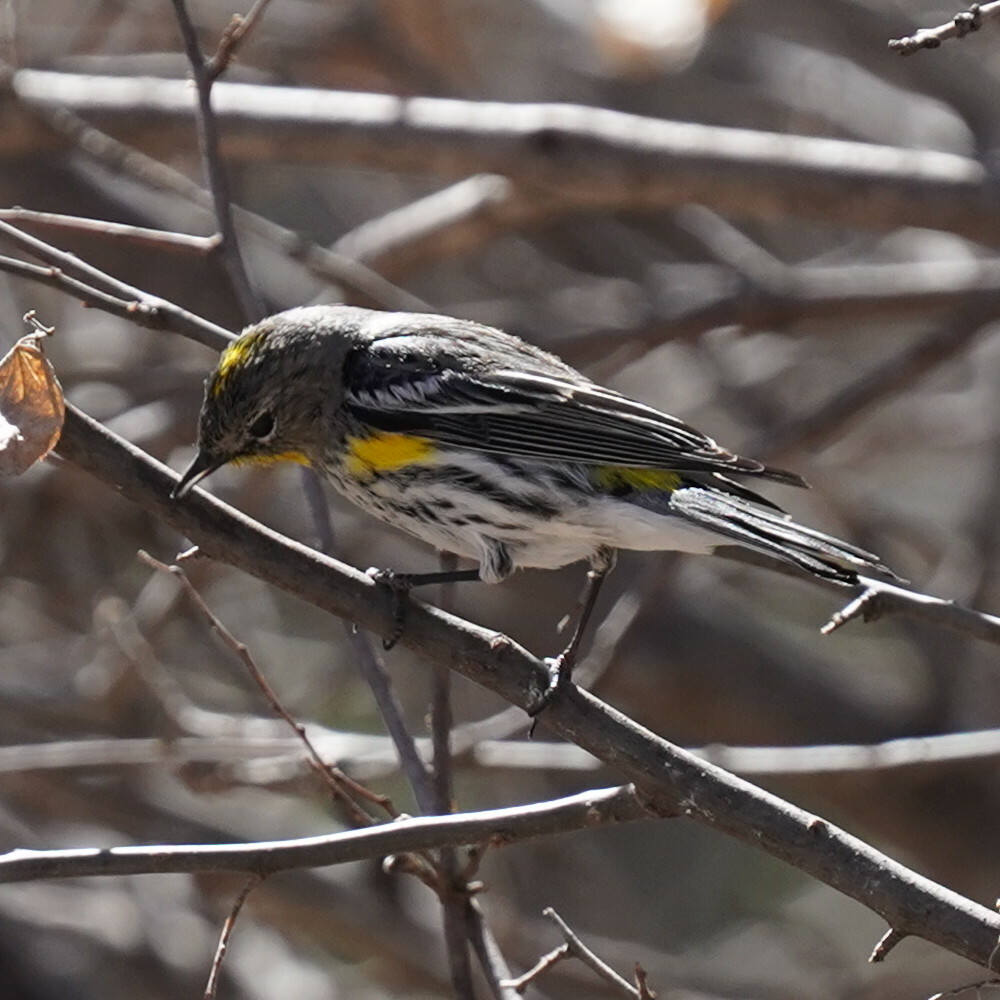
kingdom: Animalia
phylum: Chordata
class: Aves
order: Passeriformes
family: Parulidae
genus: Setophaga
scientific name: Setophaga auduboni
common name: Audubon's warbler
